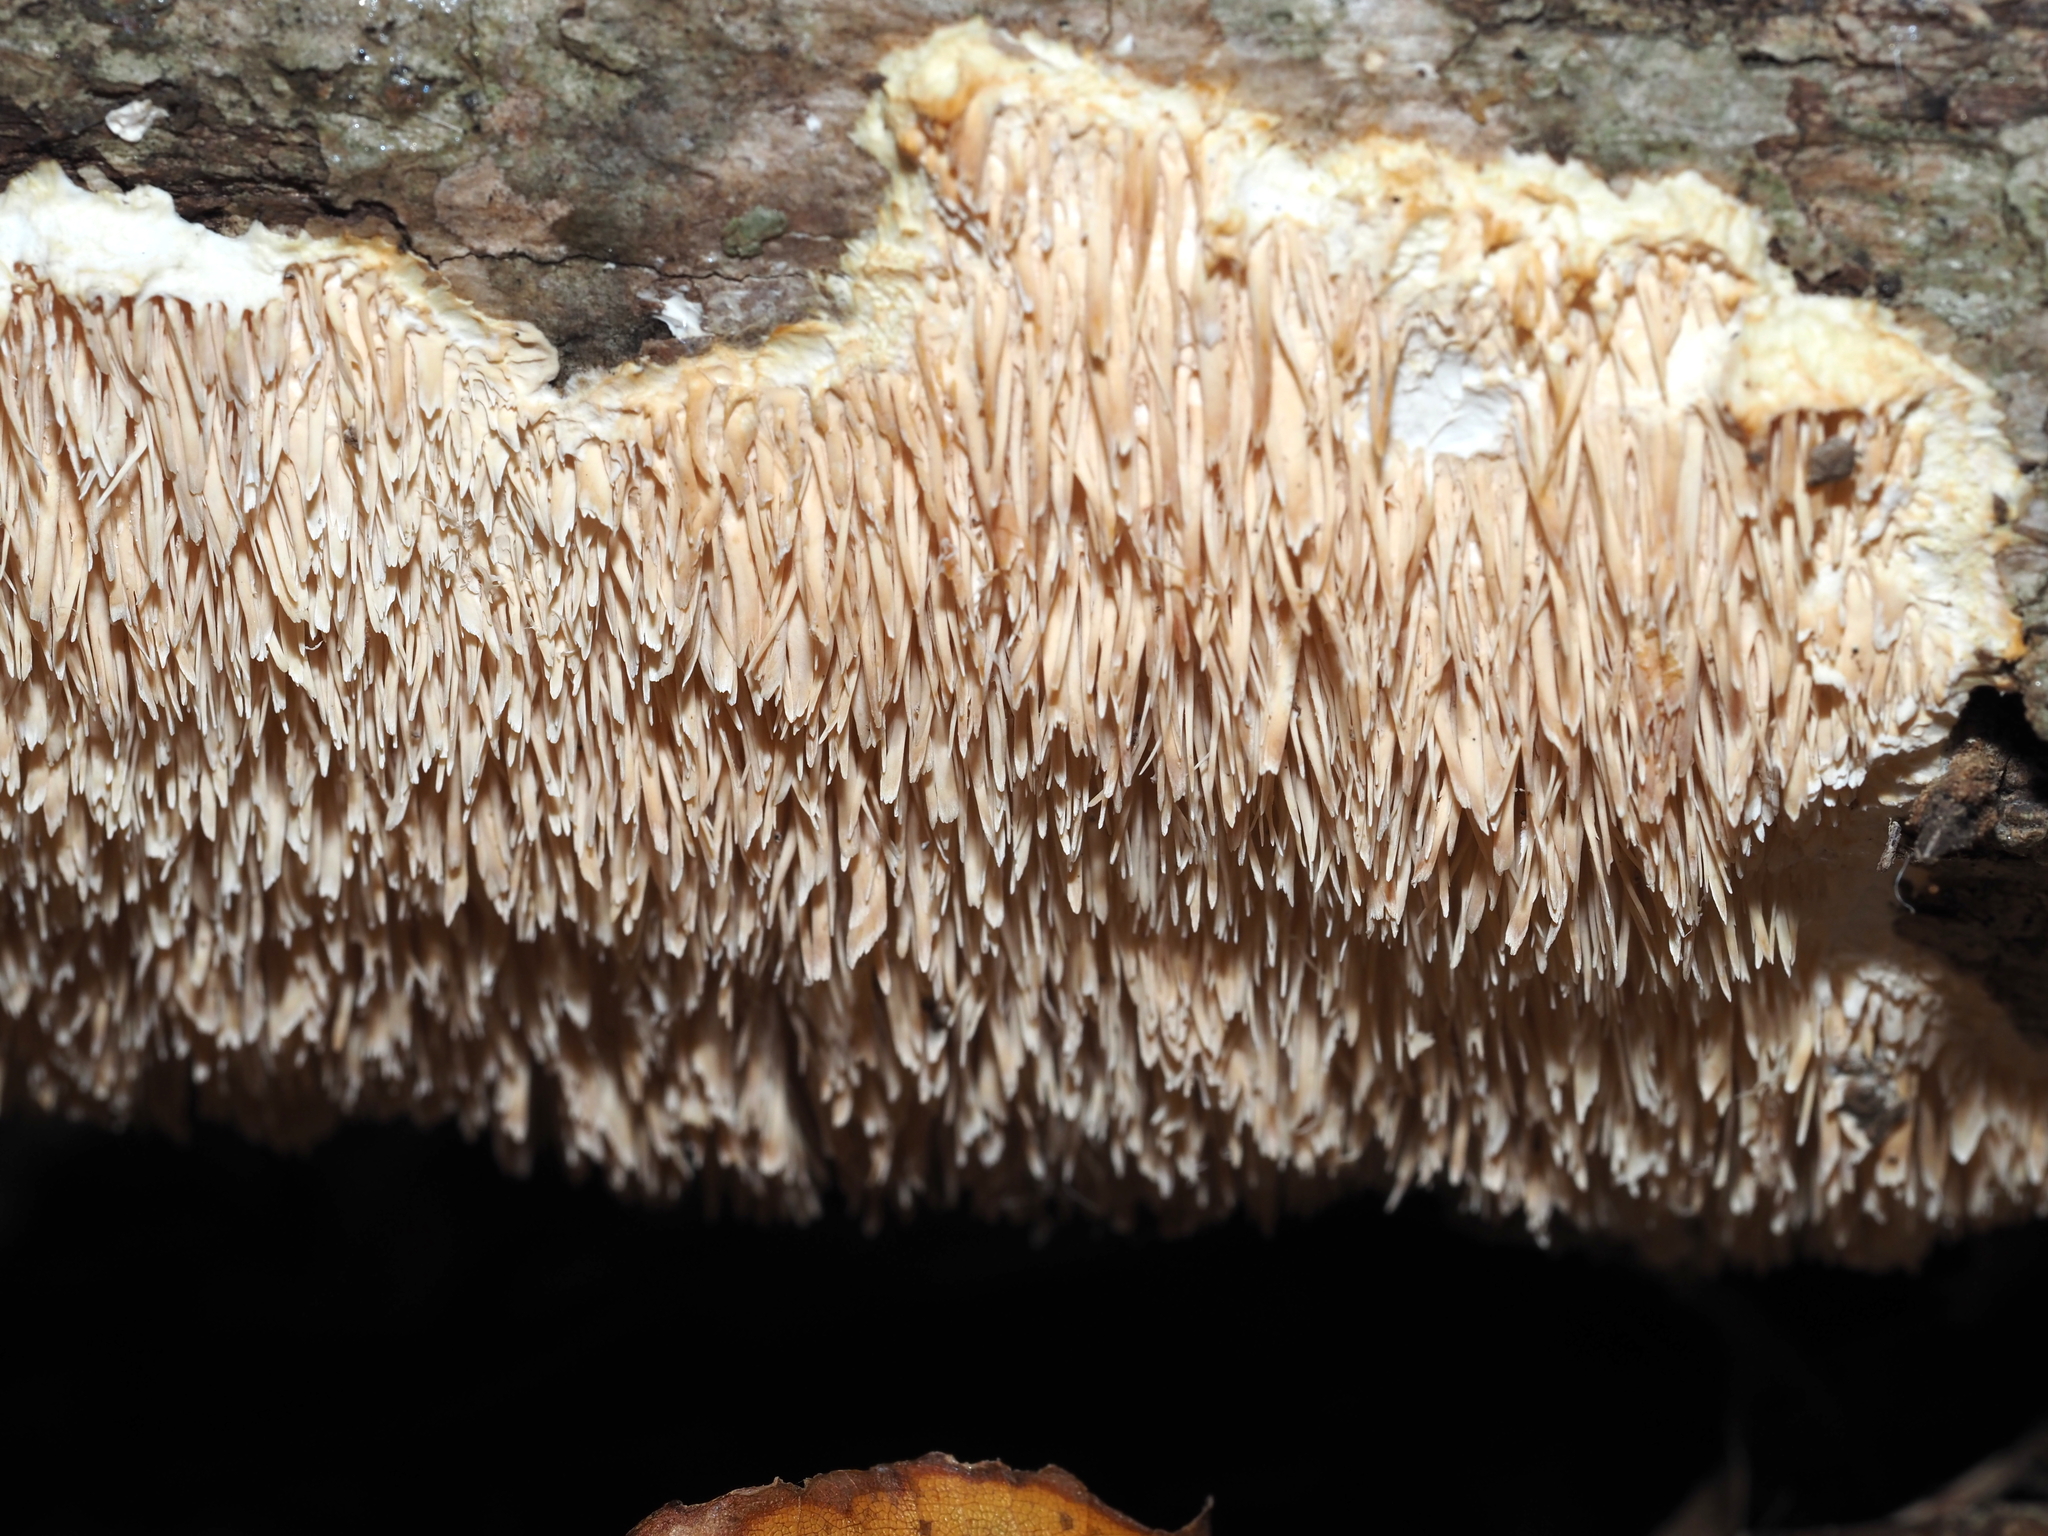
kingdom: Fungi
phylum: Basidiomycota
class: Agaricomycetes
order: Agaricales
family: Radulomycetaceae
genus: Radulomyces
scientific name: Radulomyces copelandii
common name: Asian beauty
